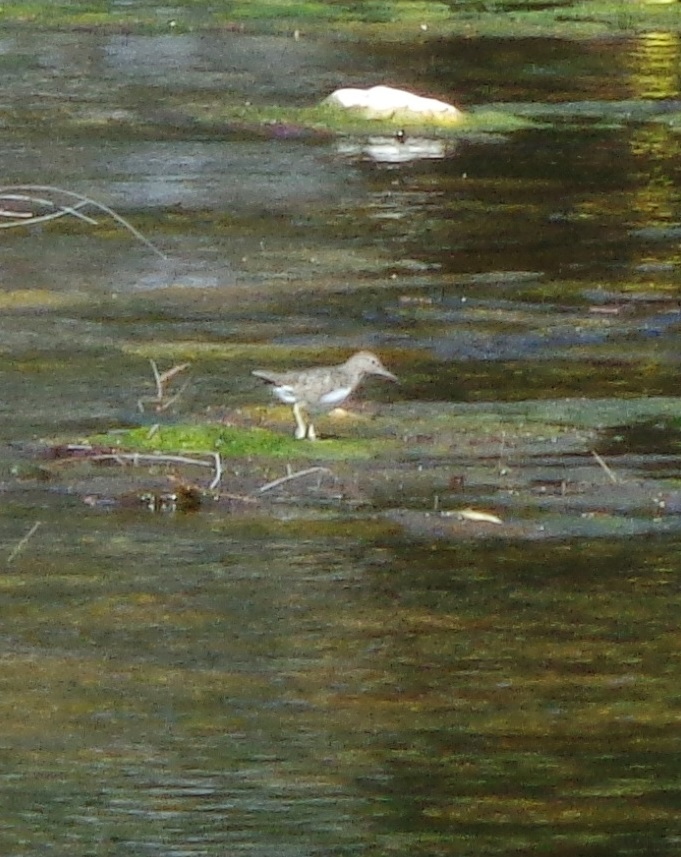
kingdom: Animalia
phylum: Chordata
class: Aves
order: Charadriiformes
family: Scolopacidae
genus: Actitis
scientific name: Actitis macularius
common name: Spotted sandpiper
